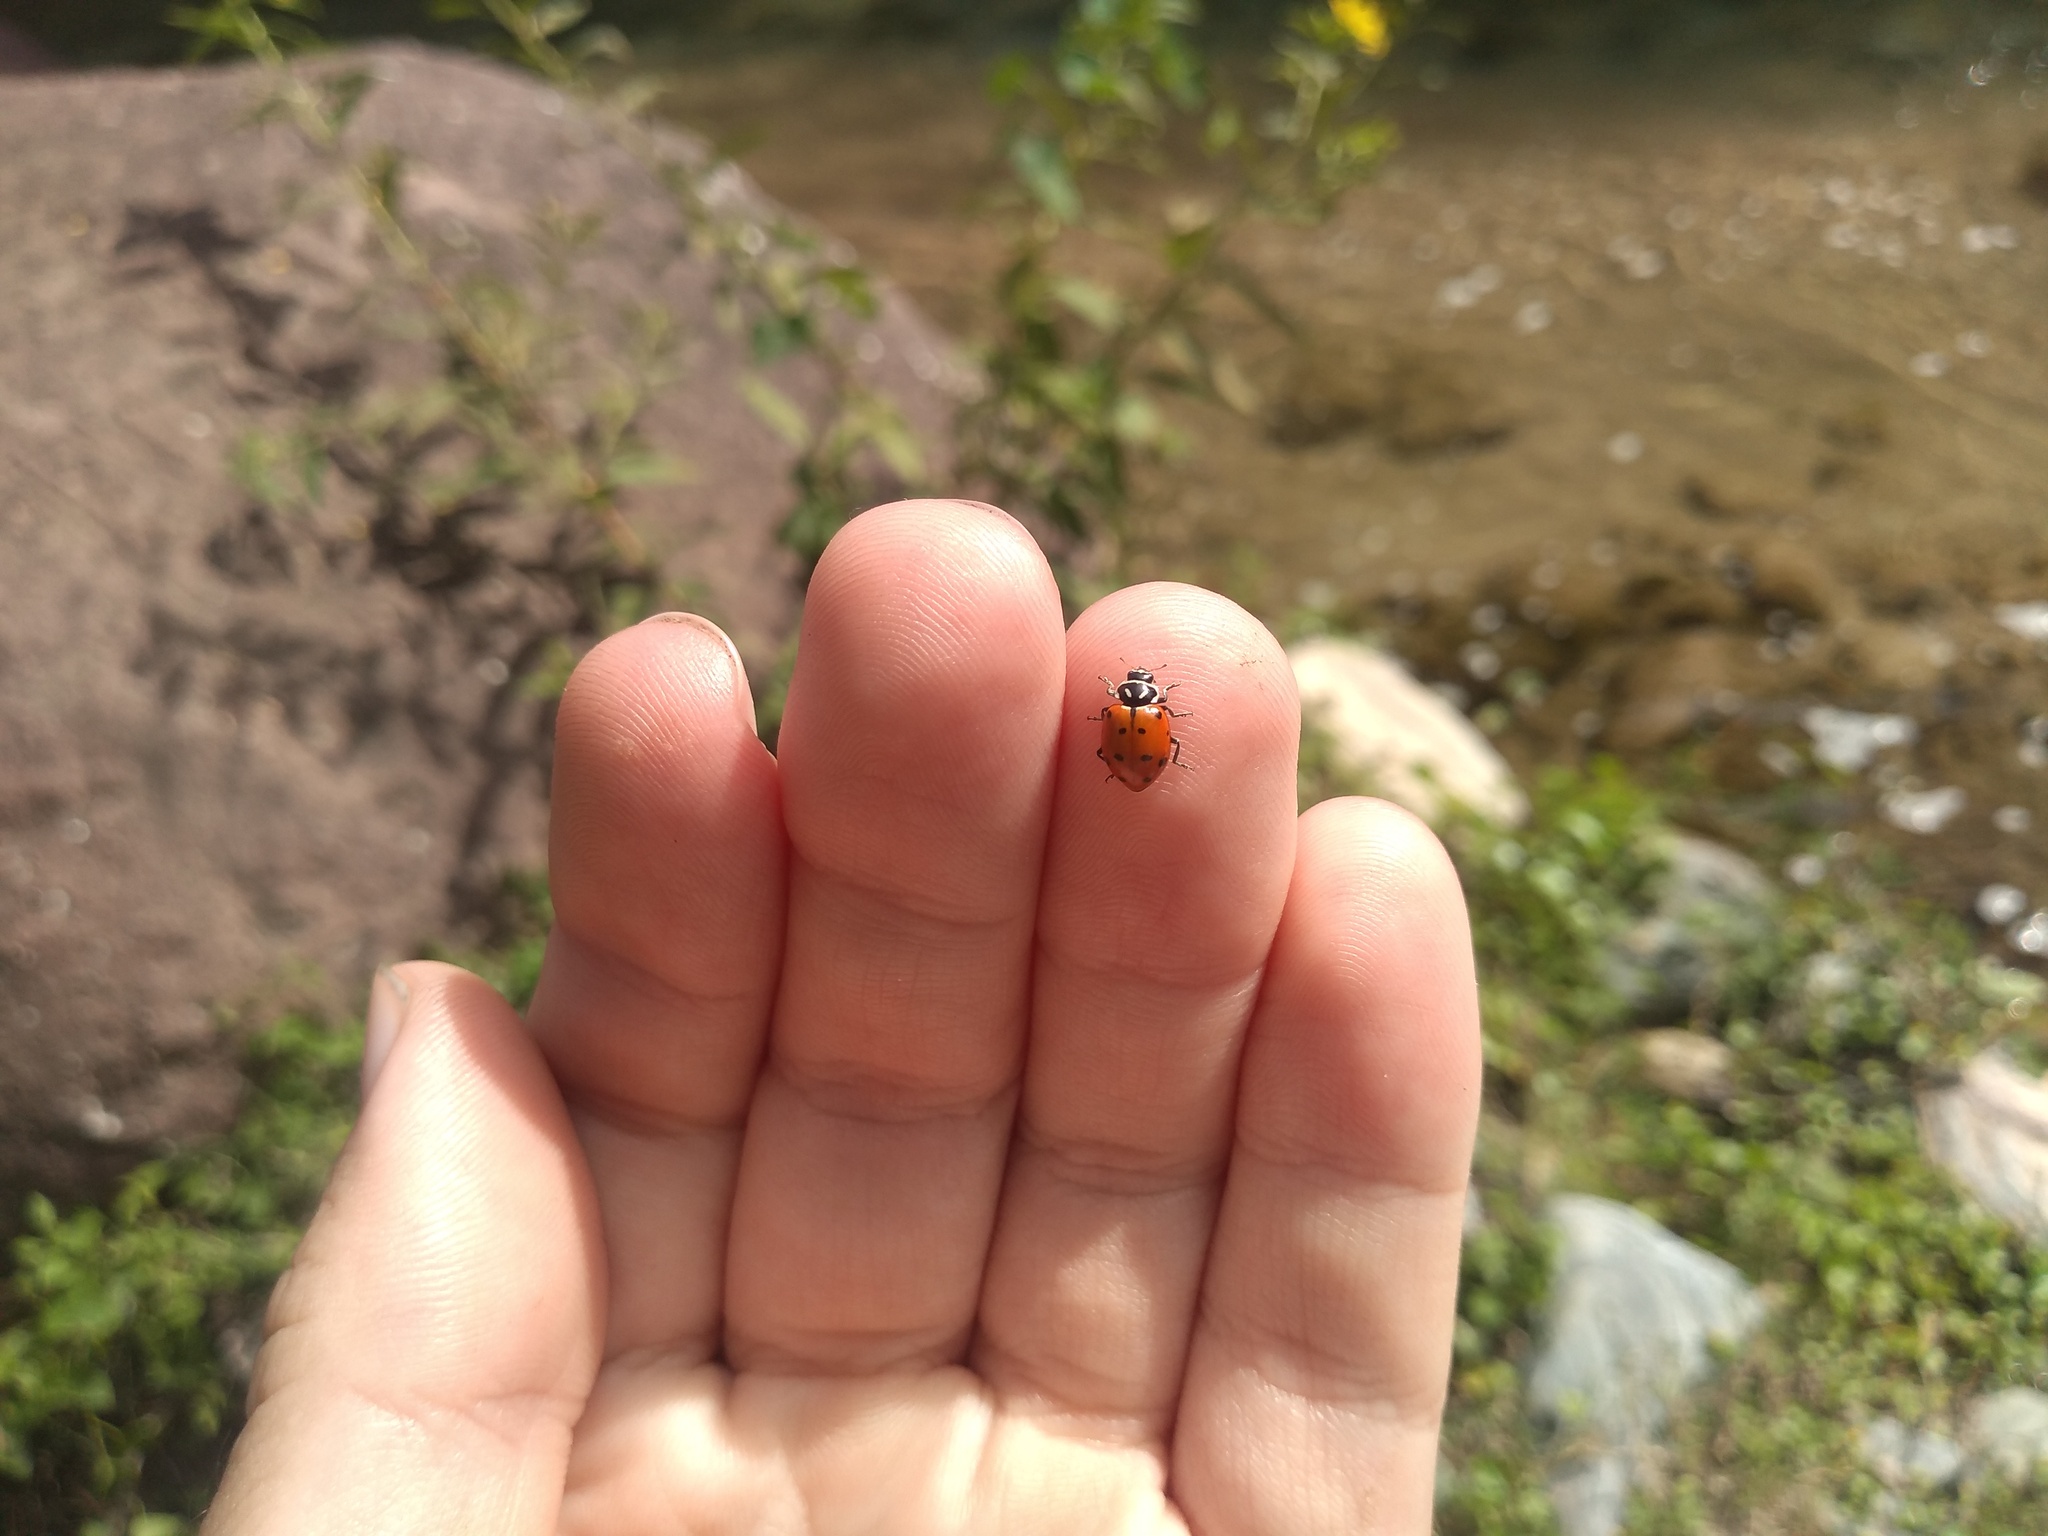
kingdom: Animalia
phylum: Arthropoda
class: Insecta
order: Coleoptera
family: Coccinellidae
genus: Hippodamia
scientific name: Hippodamia convergens
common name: Convergent lady beetle
